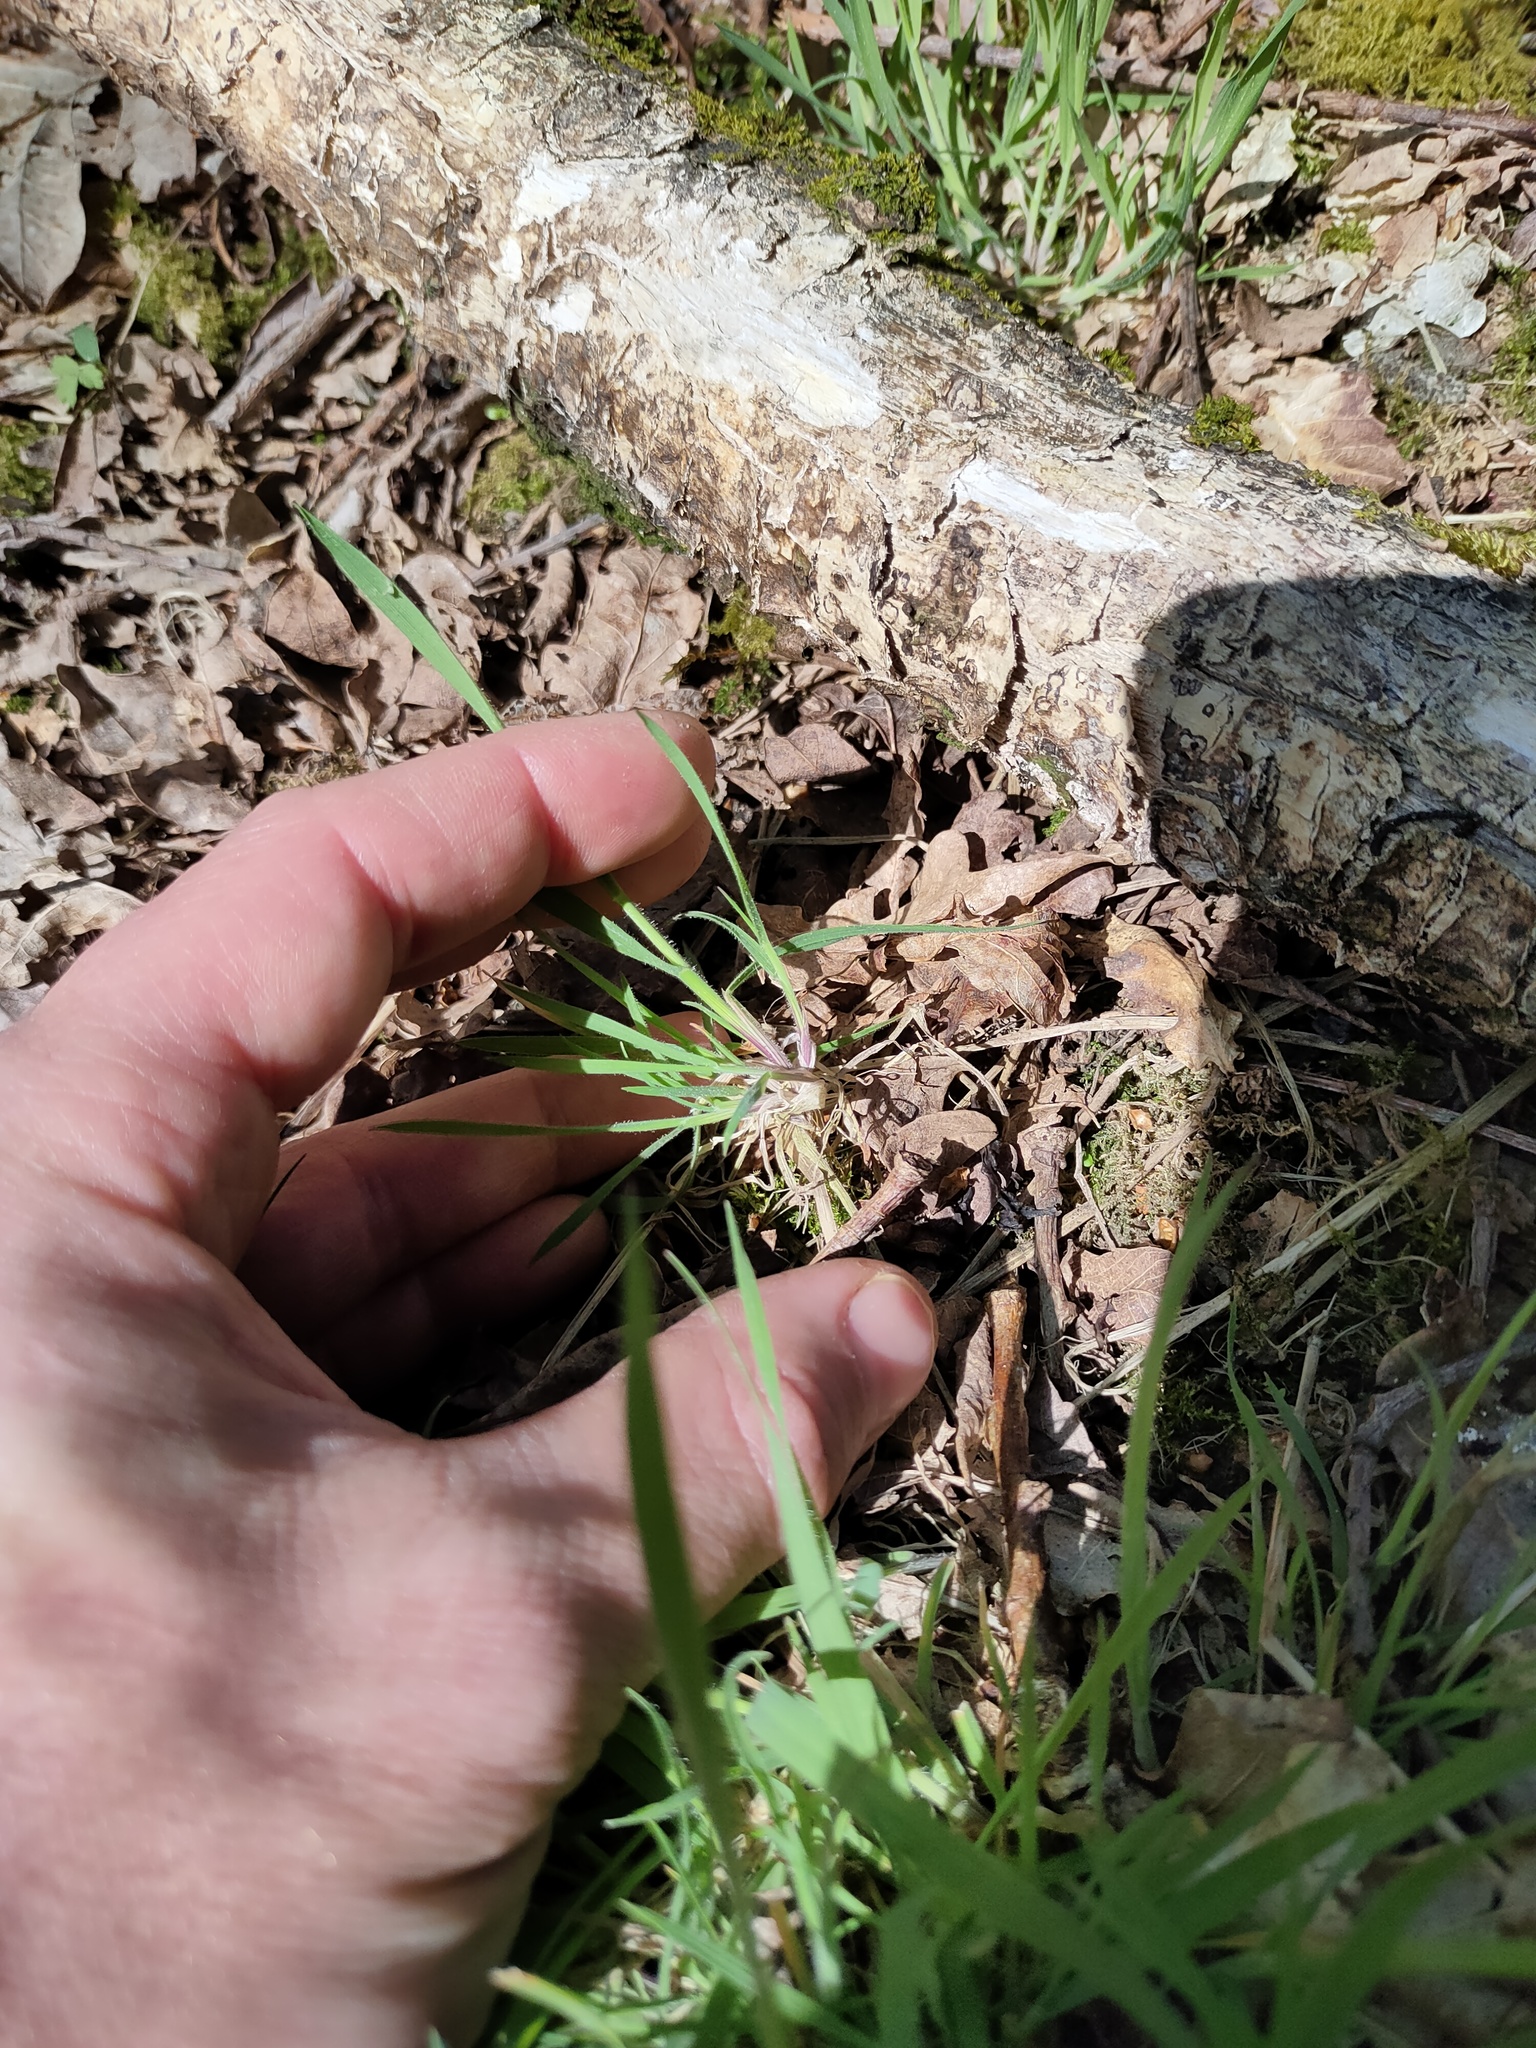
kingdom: Plantae
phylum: Tracheophyta
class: Liliopsida
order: Poales
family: Poaceae
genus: Holcus
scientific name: Holcus lanatus
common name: Yorkshire-fog
